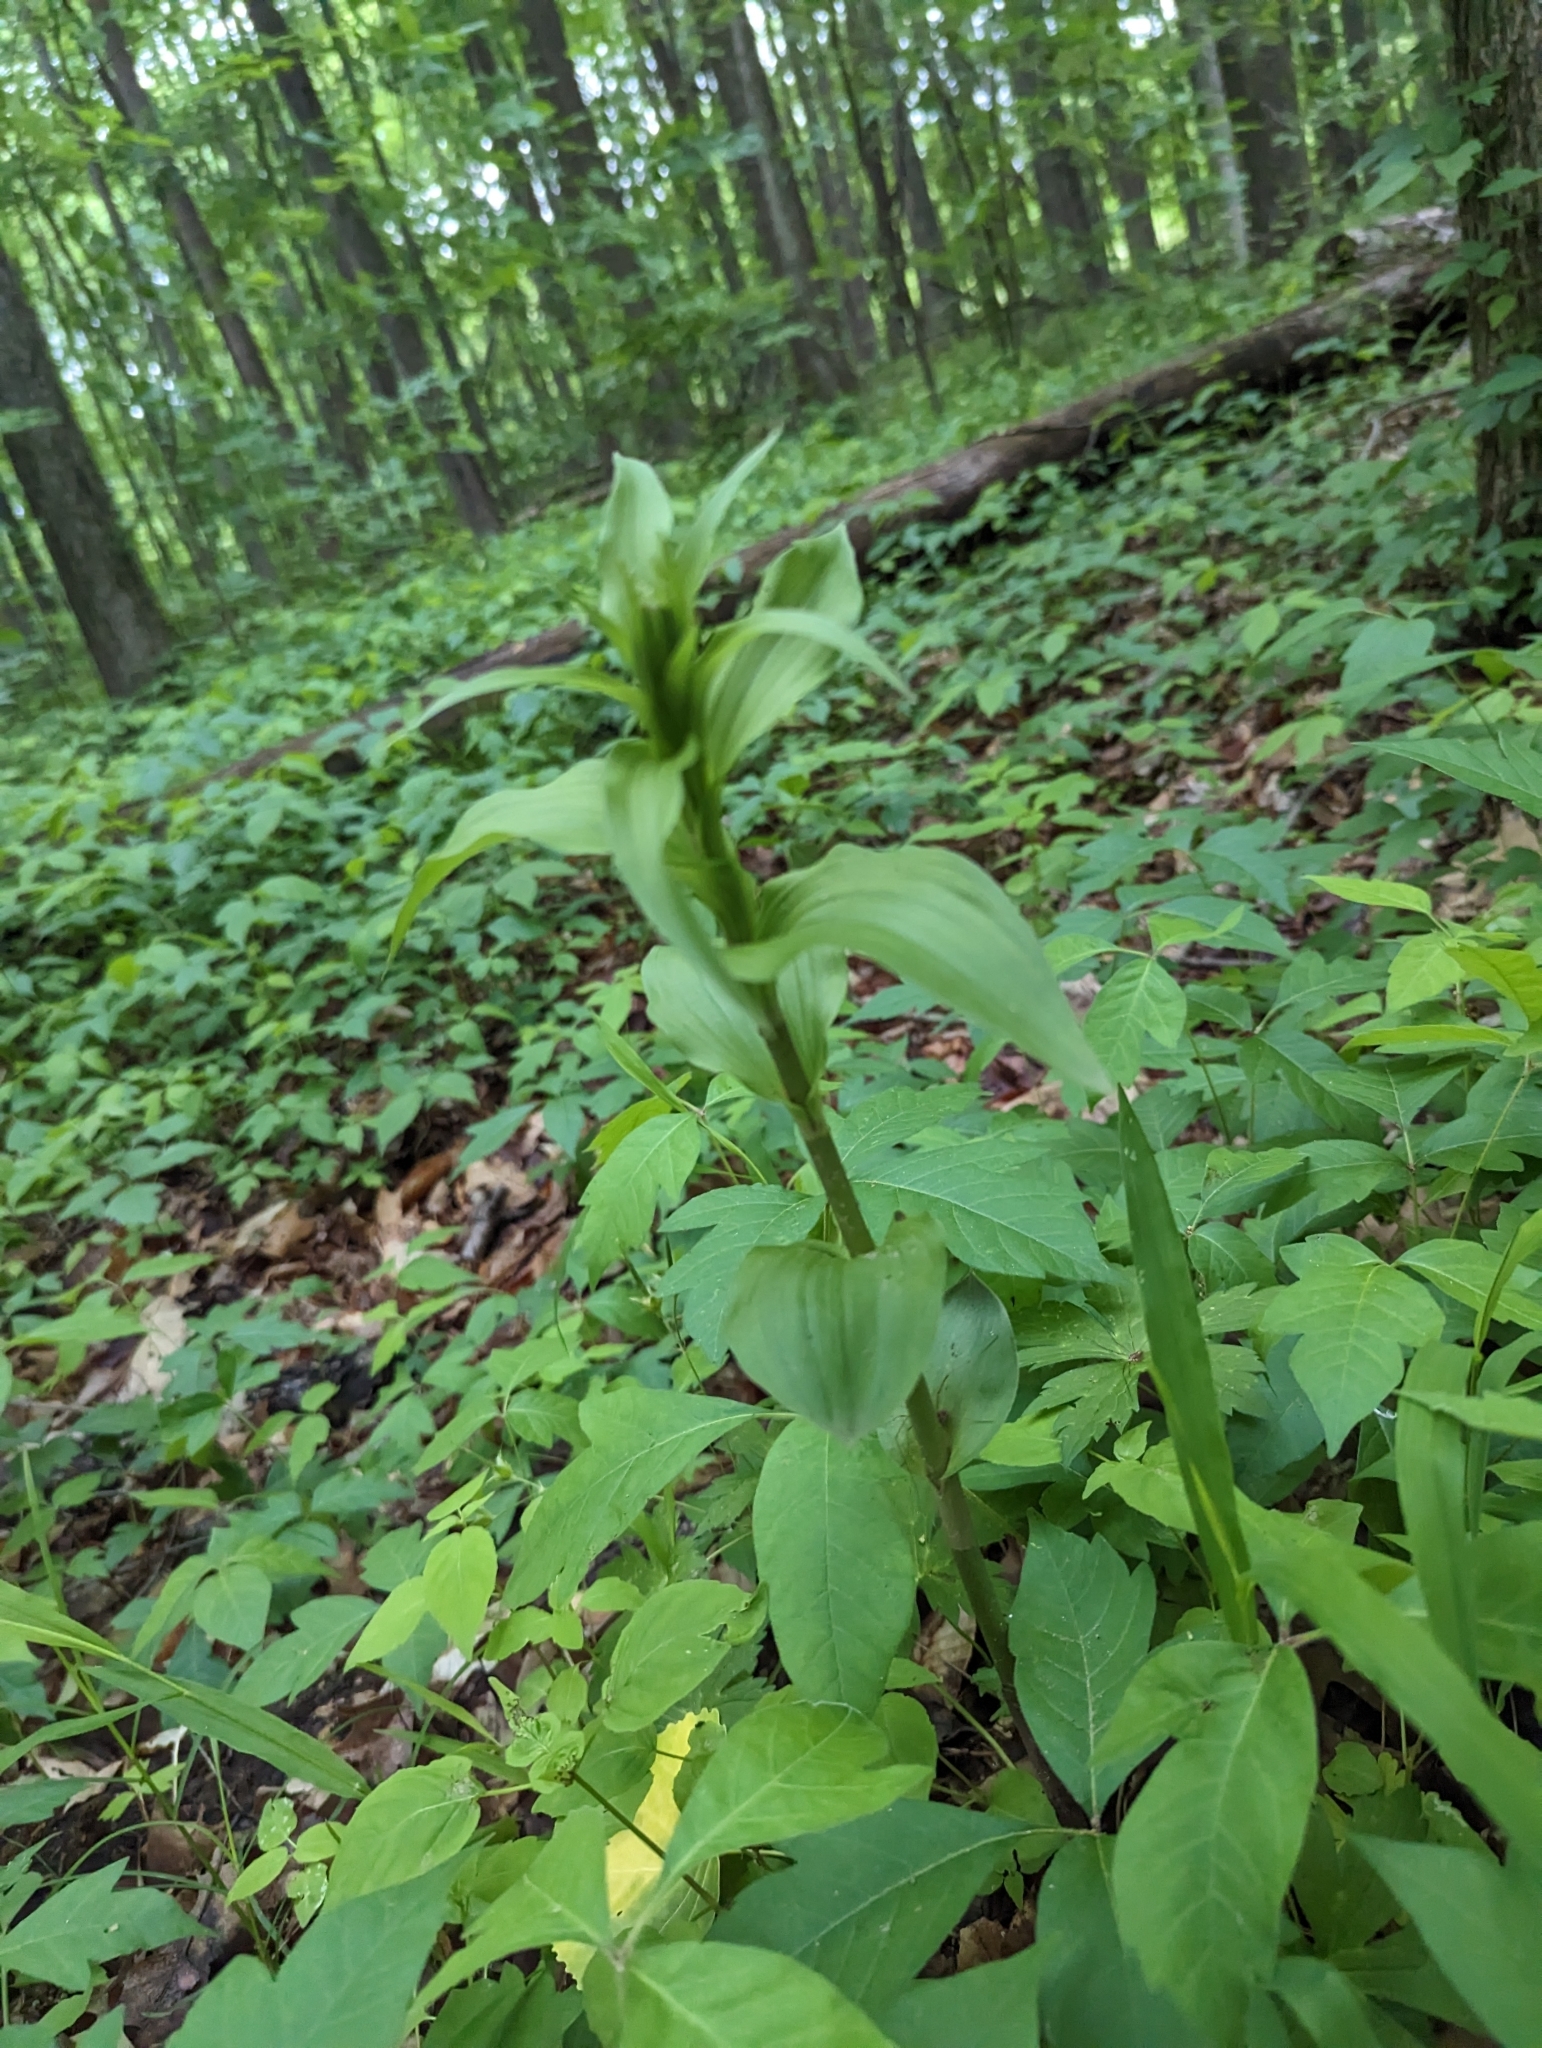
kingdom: Plantae
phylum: Tracheophyta
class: Liliopsida
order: Asparagales
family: Orchidaceae
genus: Epipactis
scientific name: Epipactis helleborine
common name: Broad-leaved helleborine
